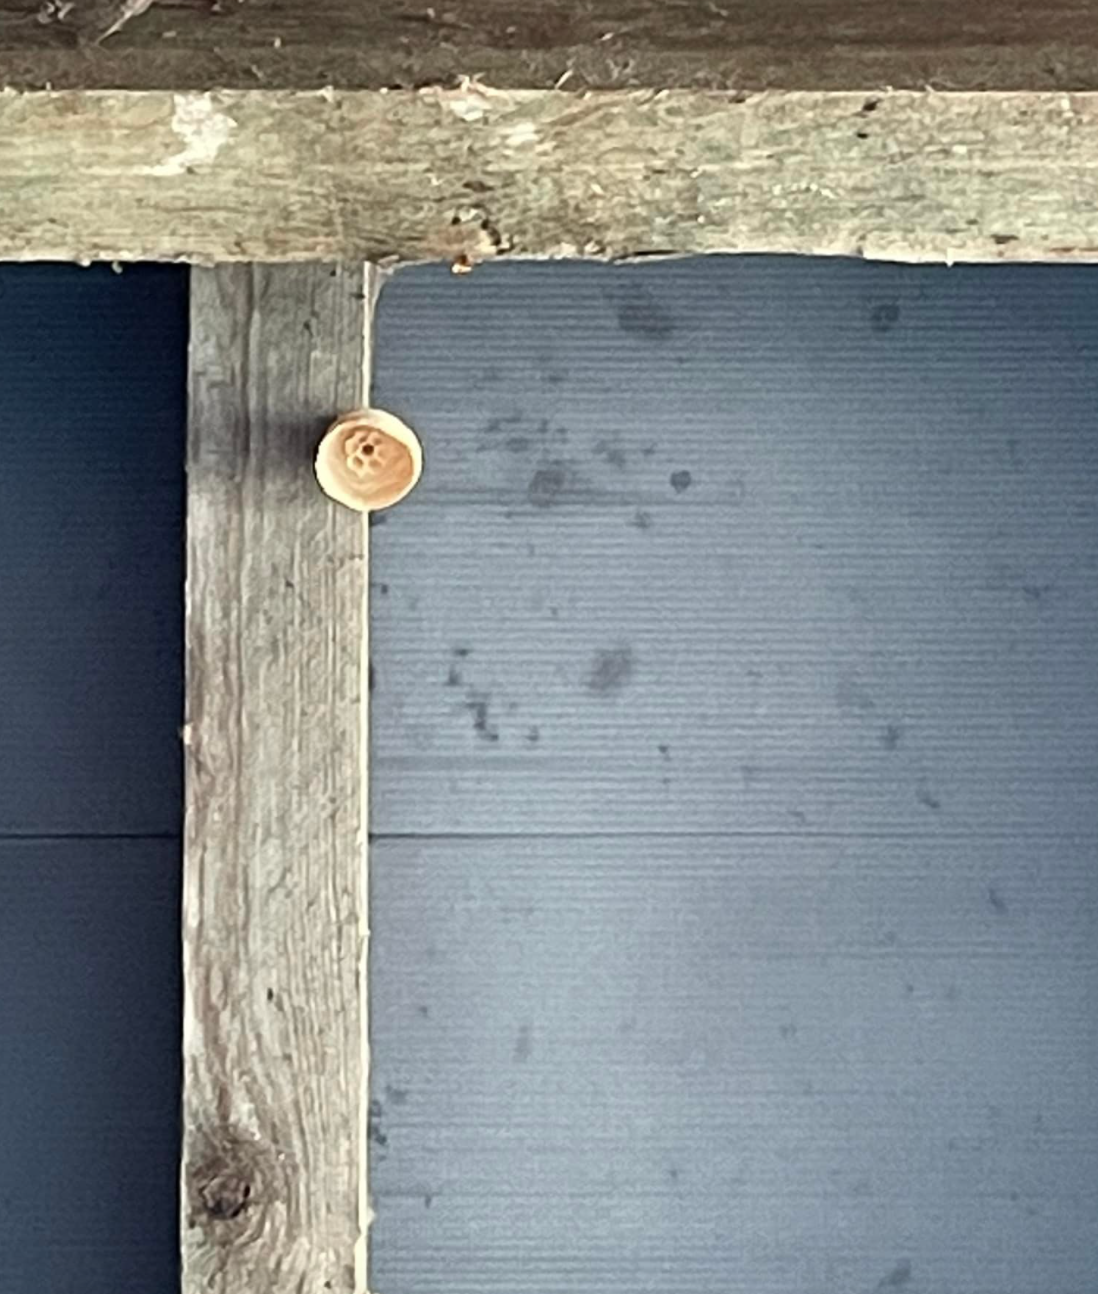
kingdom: Animalia
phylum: Arthropoda
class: Insecta
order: Hymenoptera
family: Vespidae
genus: Vespa
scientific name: Vespa velutina
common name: Asian hornet
